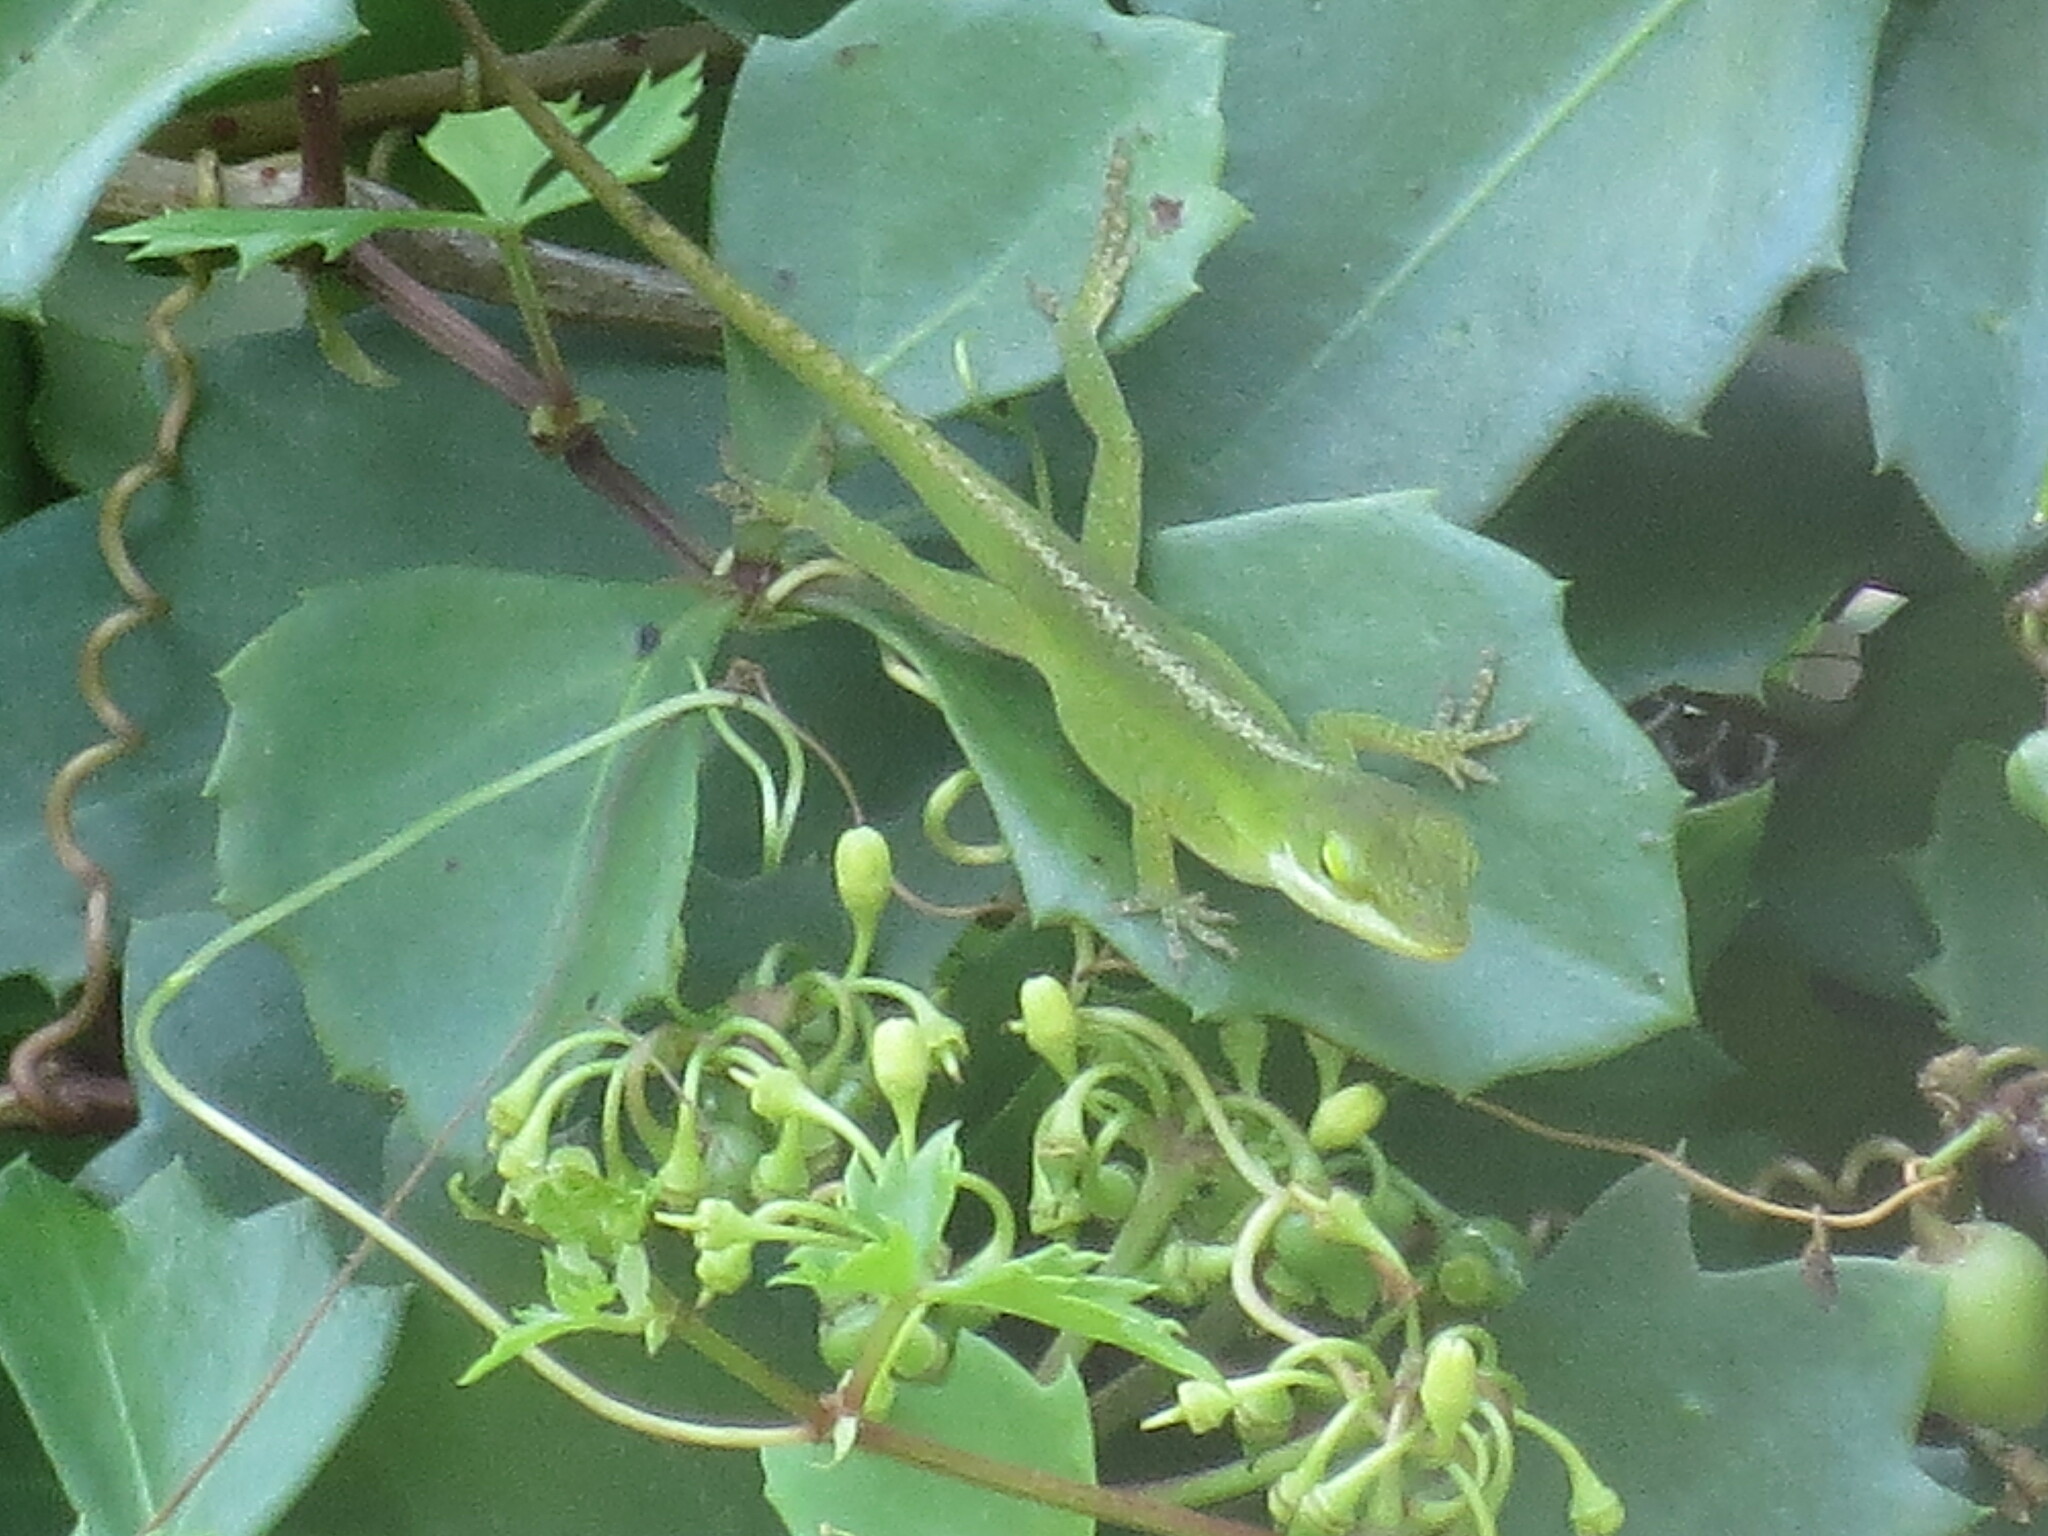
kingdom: Animalia
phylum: Chordata
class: Squamata
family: Dactyloidae
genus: Anolis
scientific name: Anolis carolinensis
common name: Green anole
